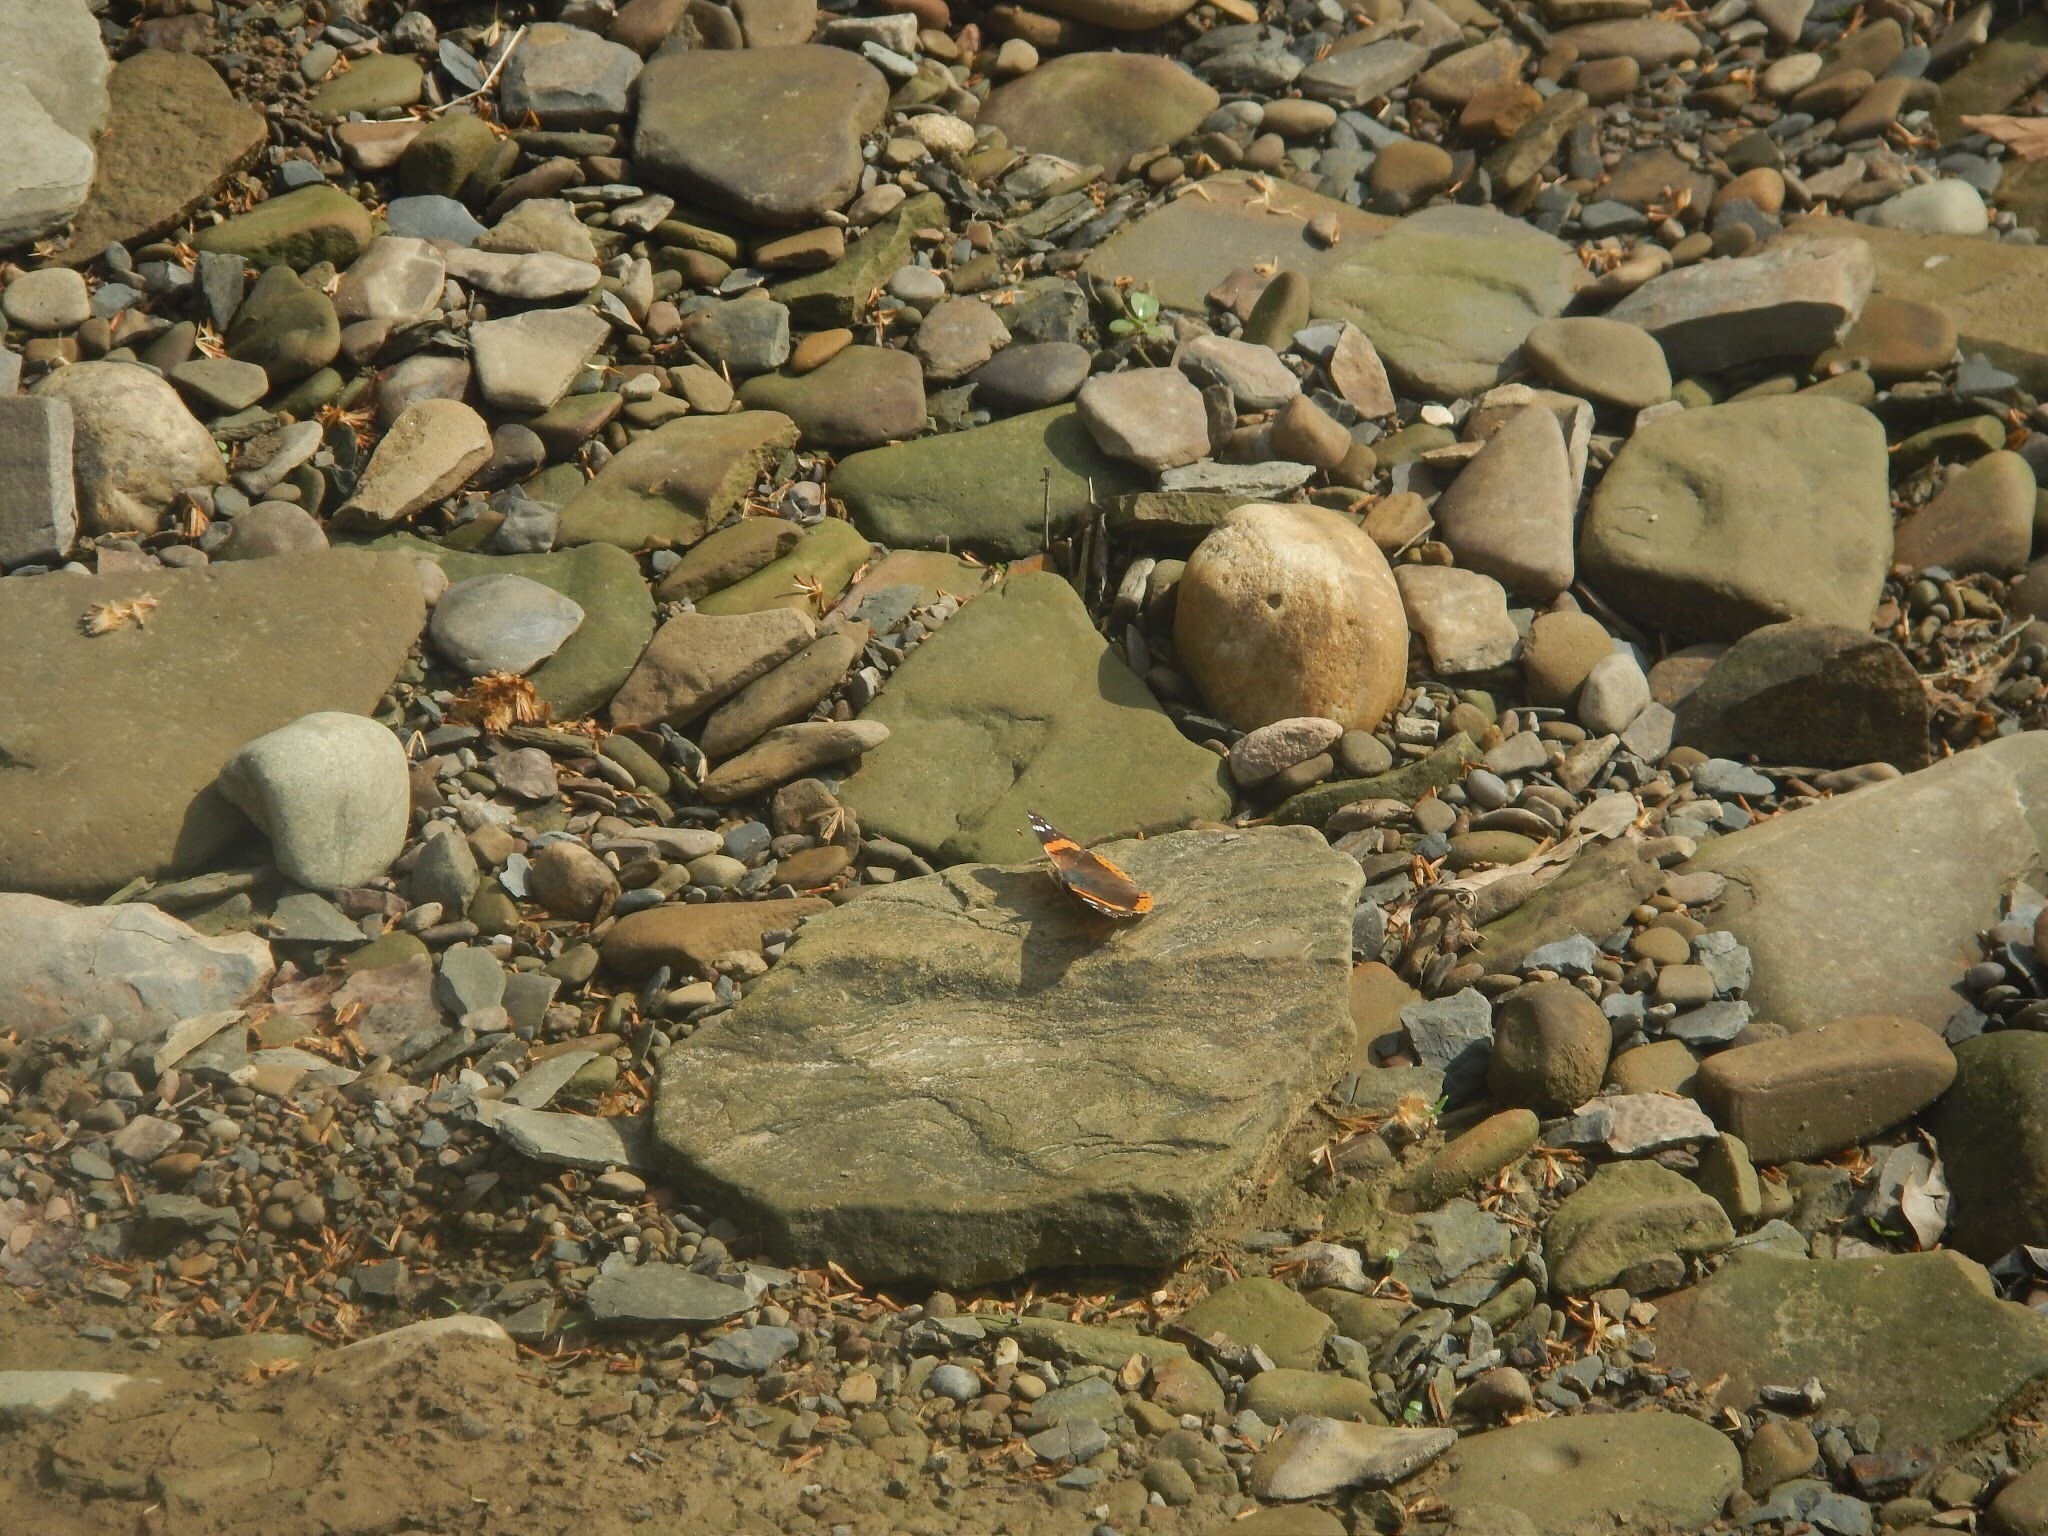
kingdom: Animalia
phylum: Arthropoda
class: Insecta
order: Lepidoptera
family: Nymphalidae
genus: Vanessa
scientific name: Vanessa atalanta
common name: Red admiral
